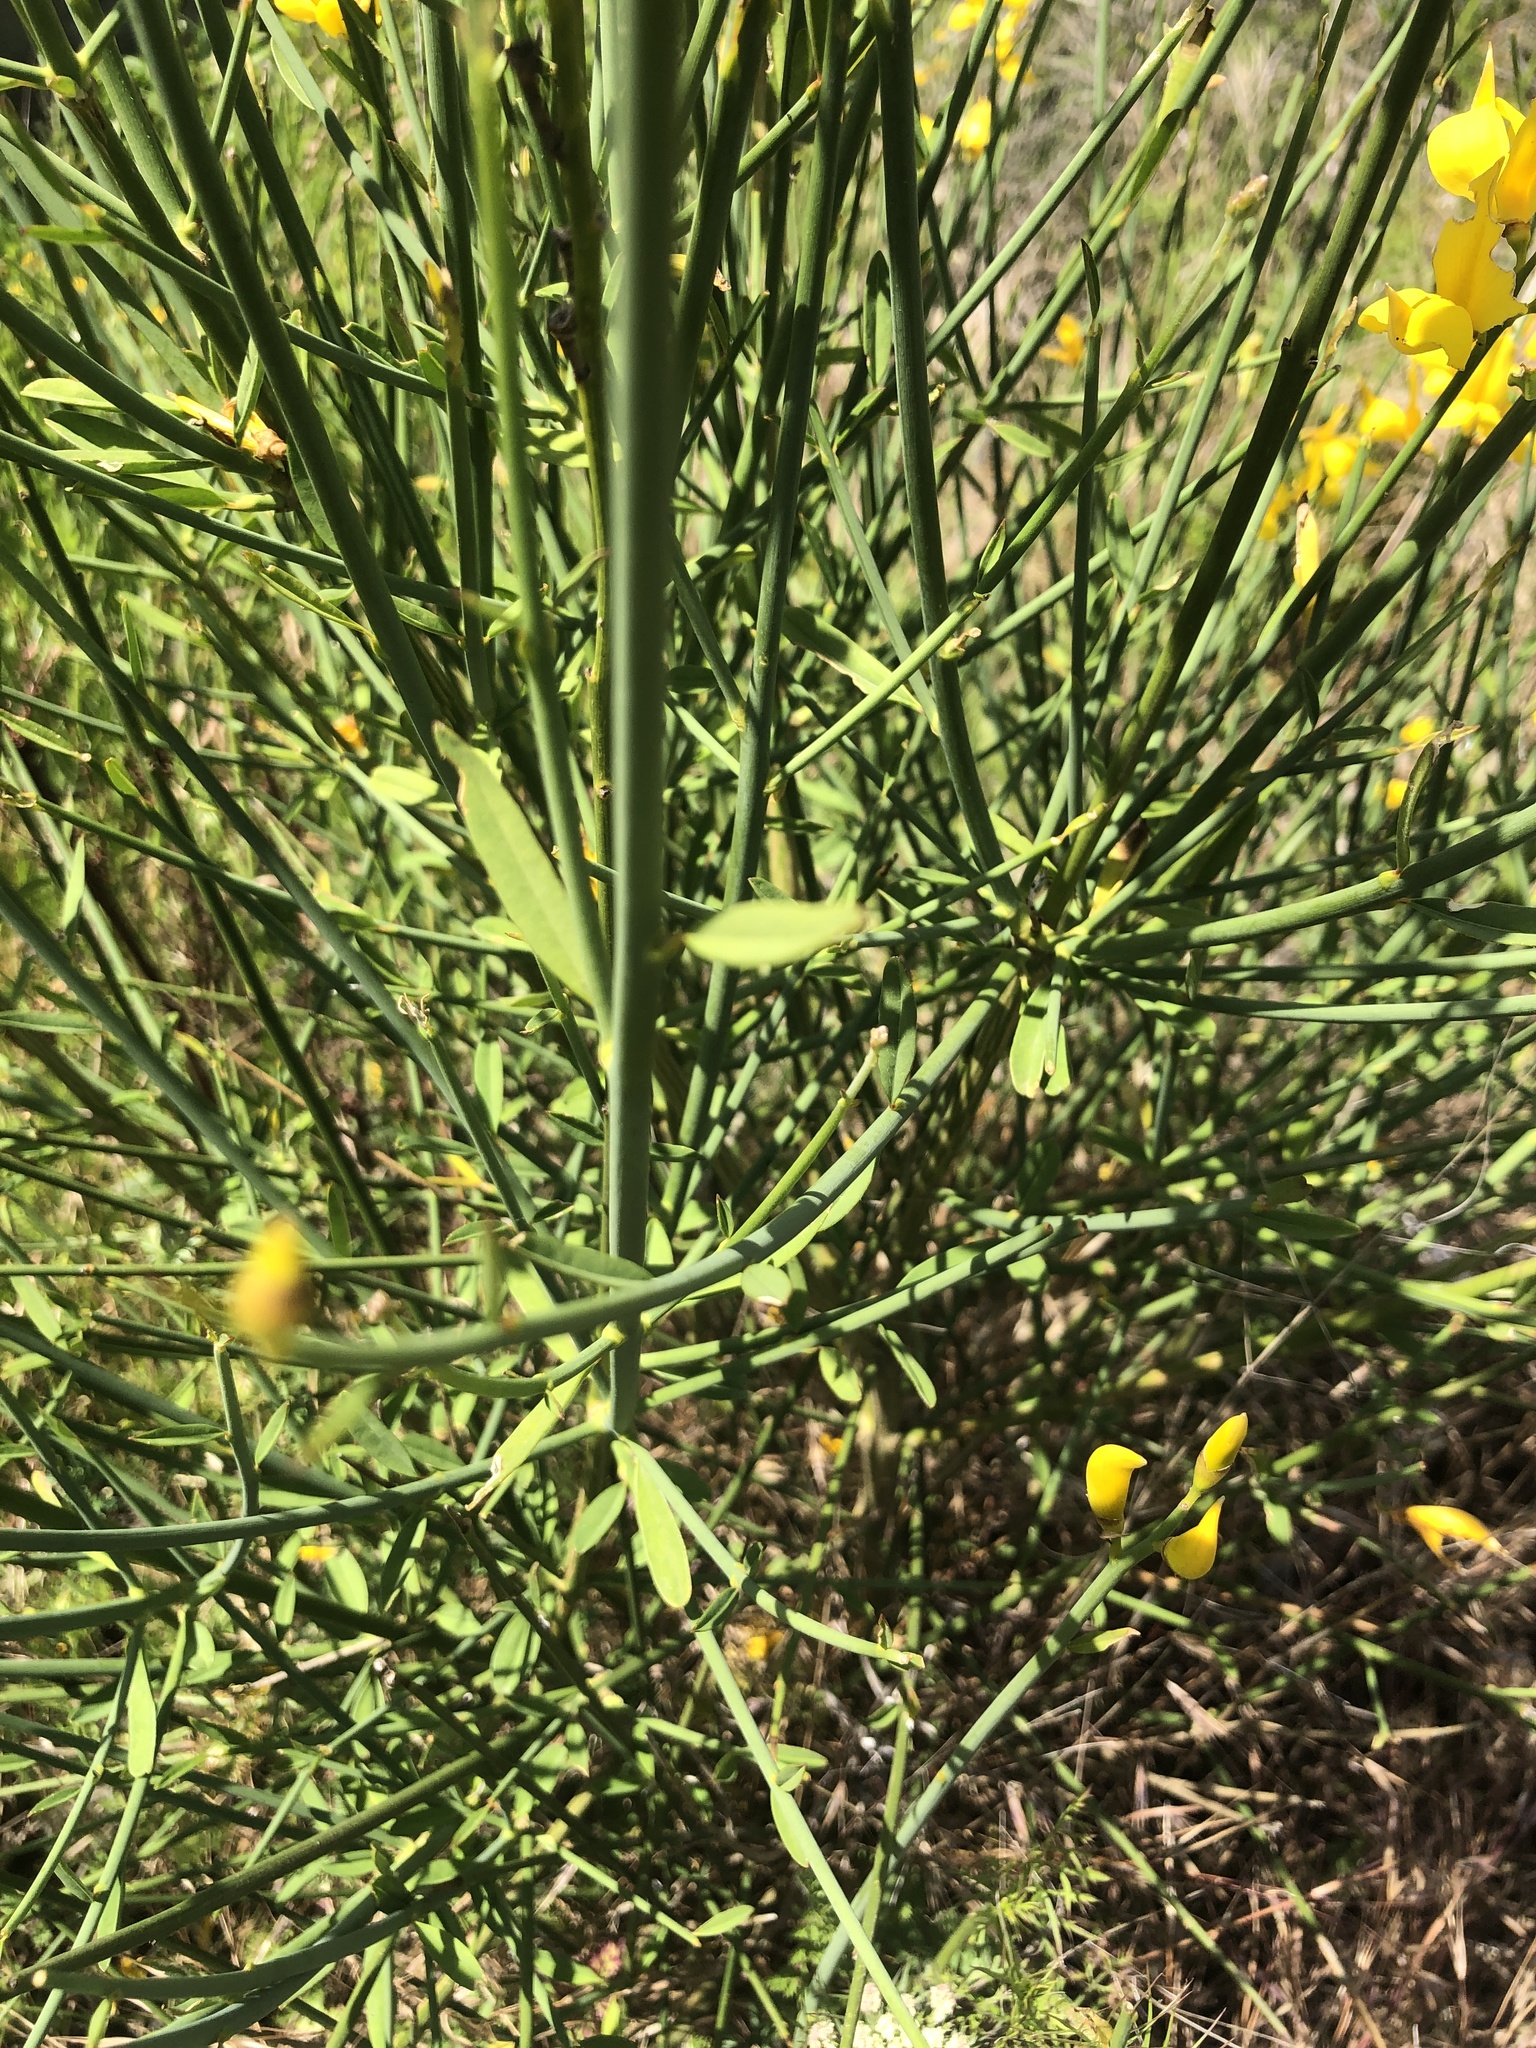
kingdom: Plantae
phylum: Tracheophyta
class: Magnoliopsida
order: Fabales
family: Fabaceae
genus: Spartium
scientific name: Spartium junceum
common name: Spanish broom
